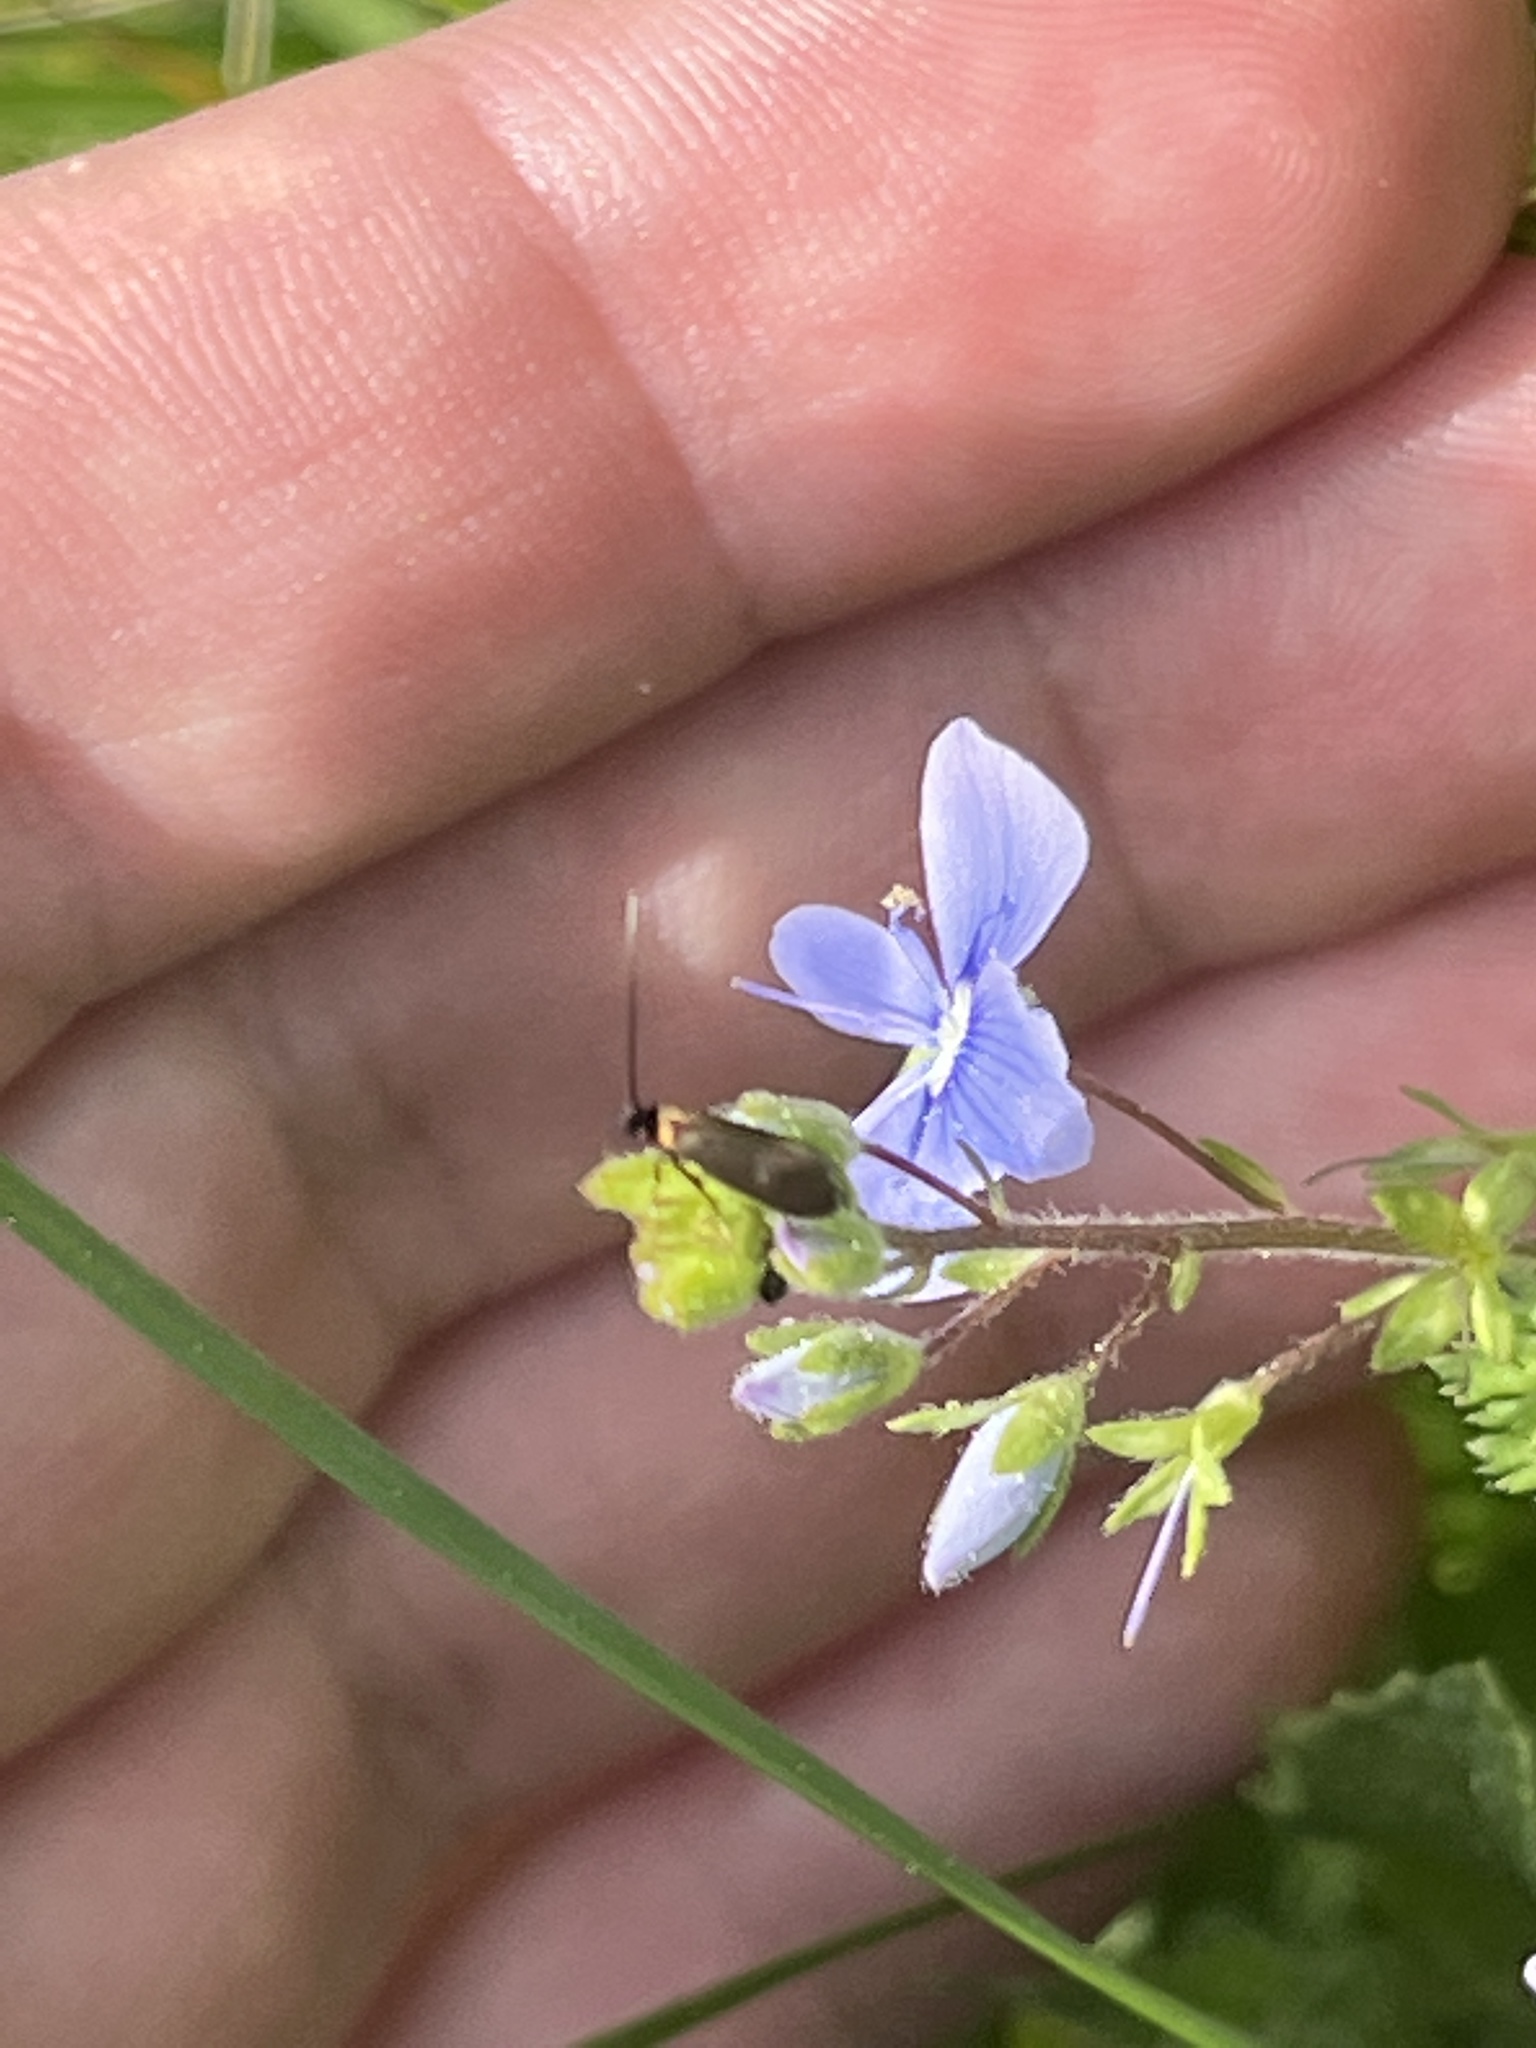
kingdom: Animalia
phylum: Arthropoda
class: Insecta
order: Lepidoptera
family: Adelidae
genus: Cauchas
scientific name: Cauchas leucocerella
